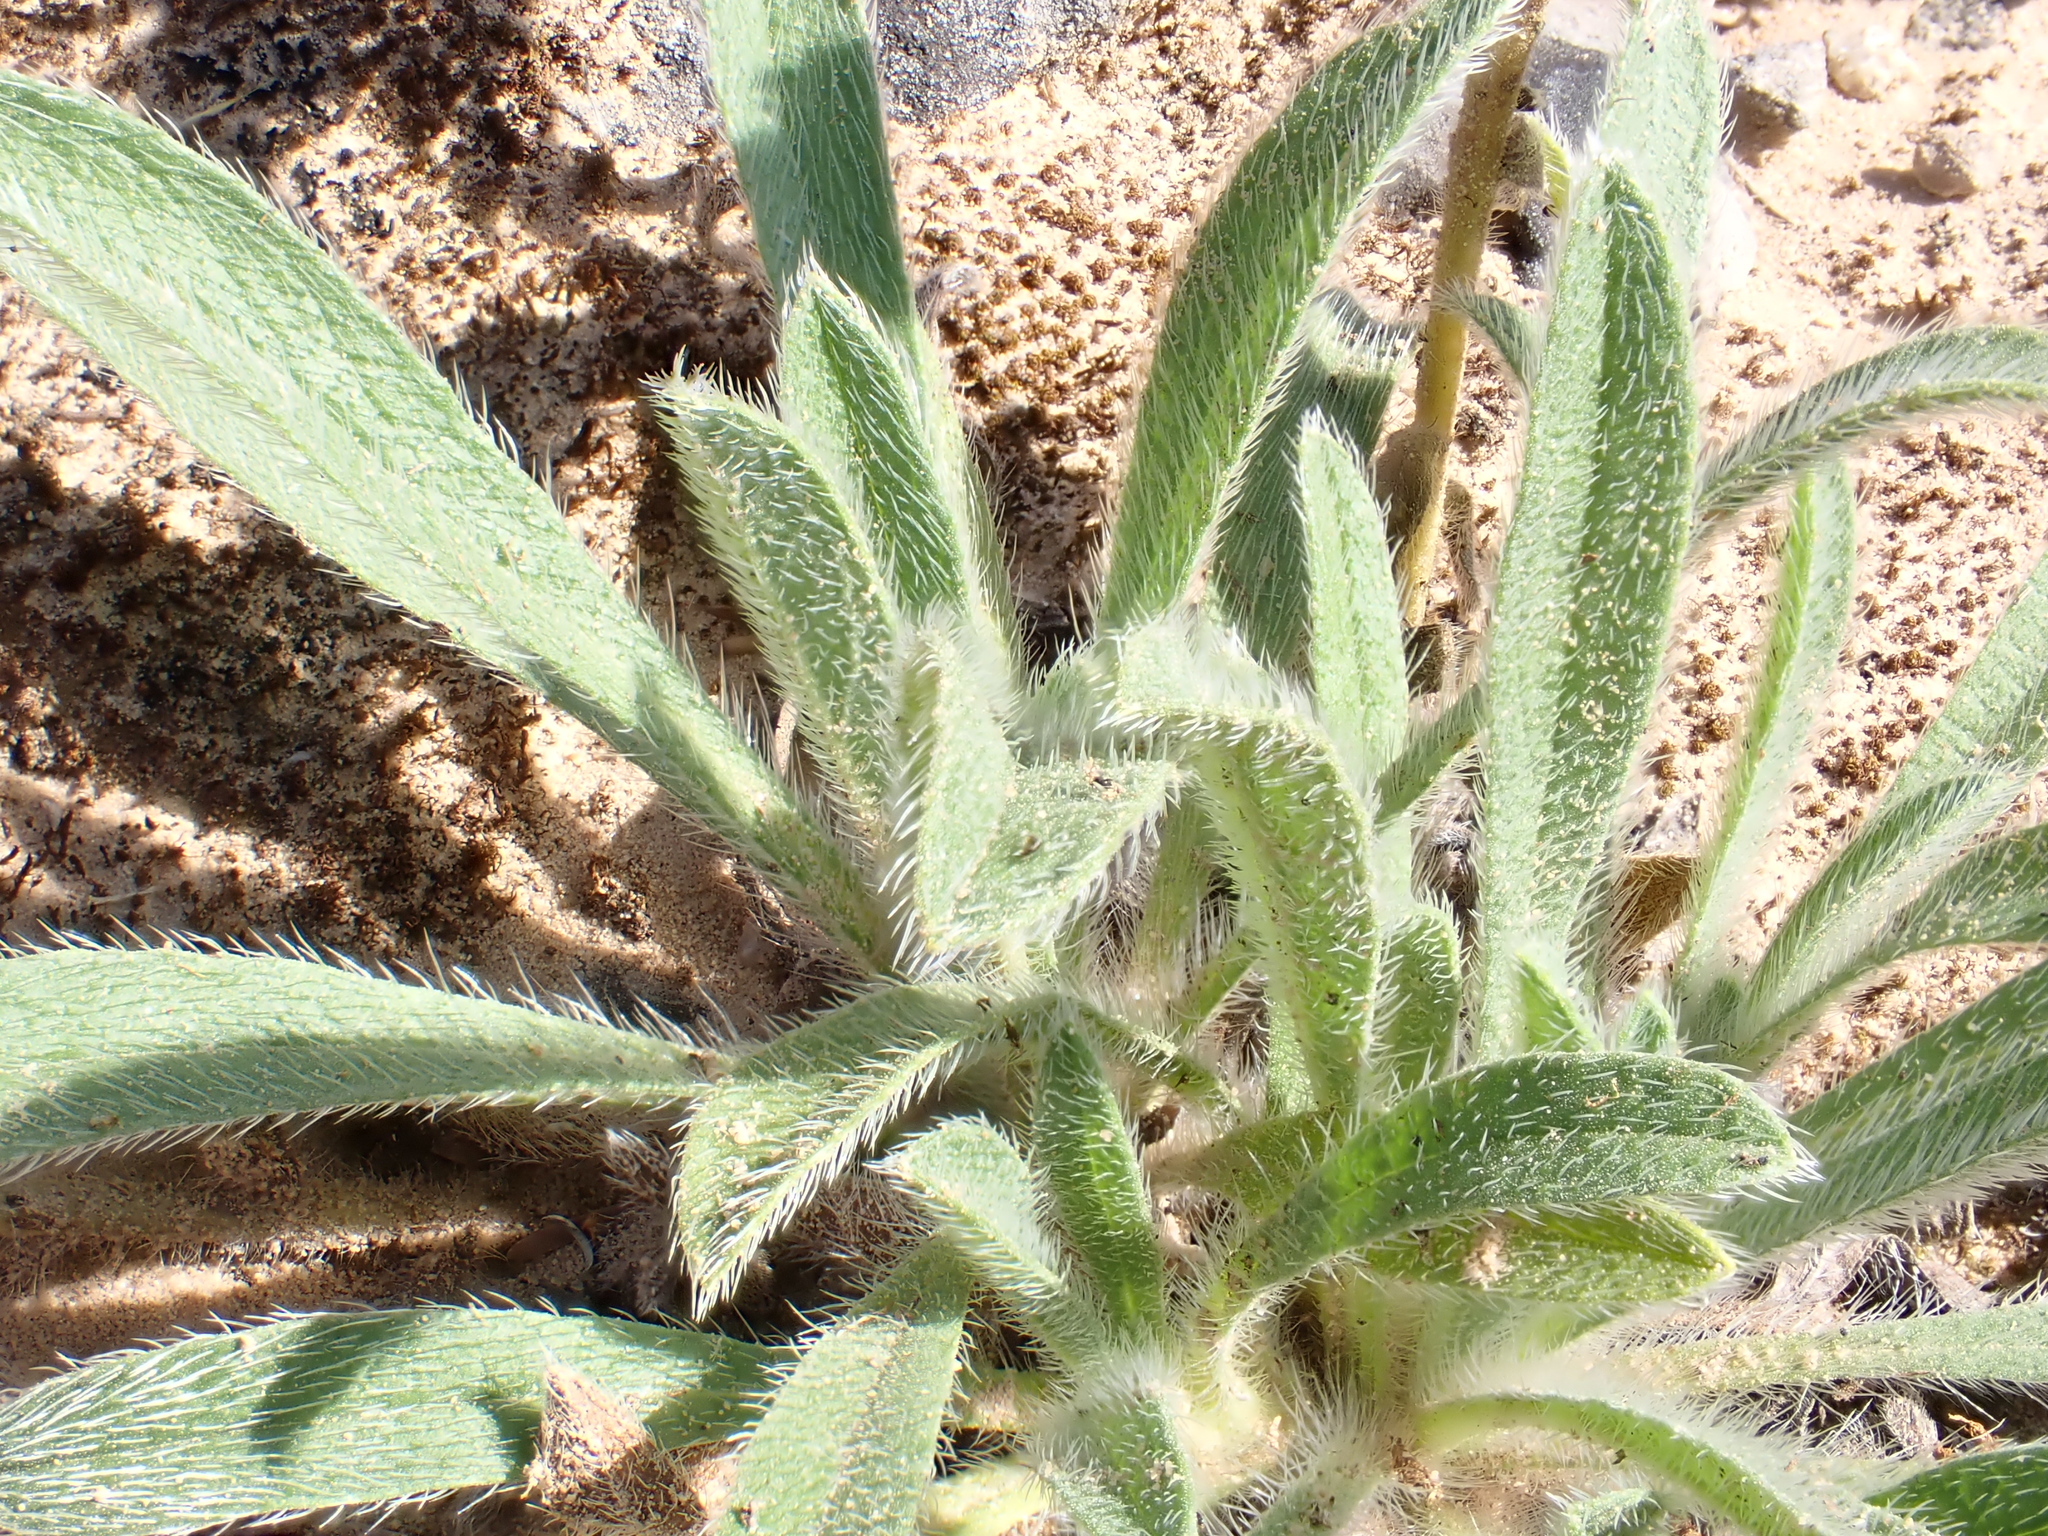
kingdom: Plantae
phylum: Tracheophyta
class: Magnoliopsida
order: Boraginales
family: Boraginaceae
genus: Alkanna
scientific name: Alkanna tinctoria
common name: Dyer's-alkanet
